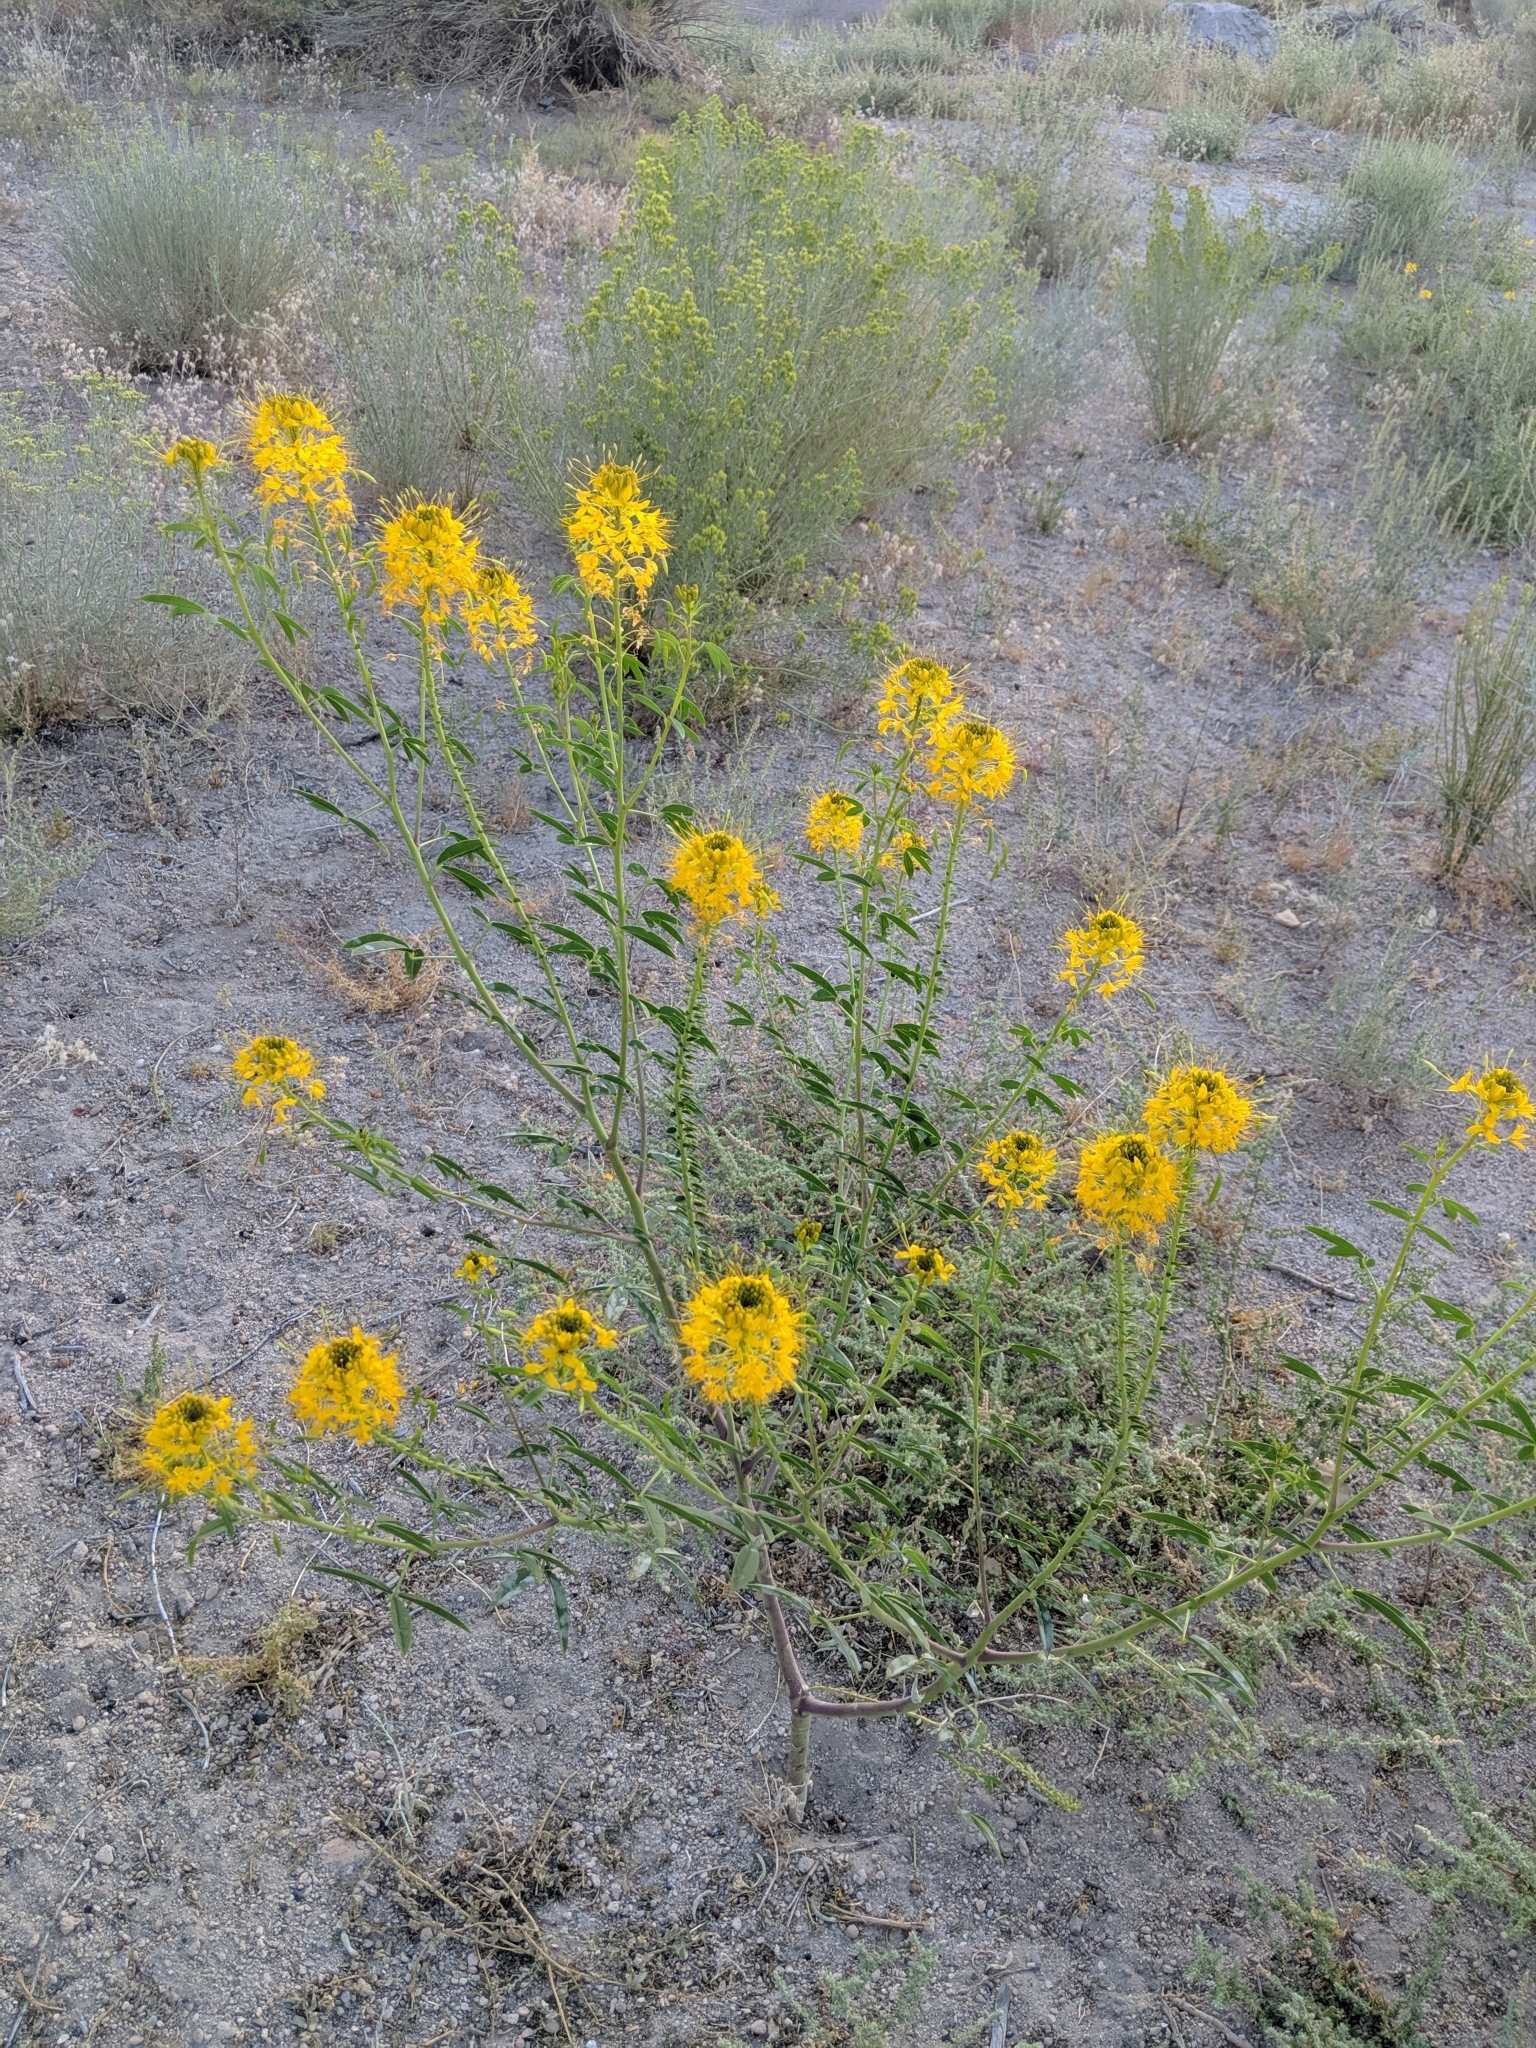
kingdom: Plantae
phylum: Tracheophyta
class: Magnoliopsida
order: Brassicales
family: Cleomaceae
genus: Cleomella
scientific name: Cleomella lutea
